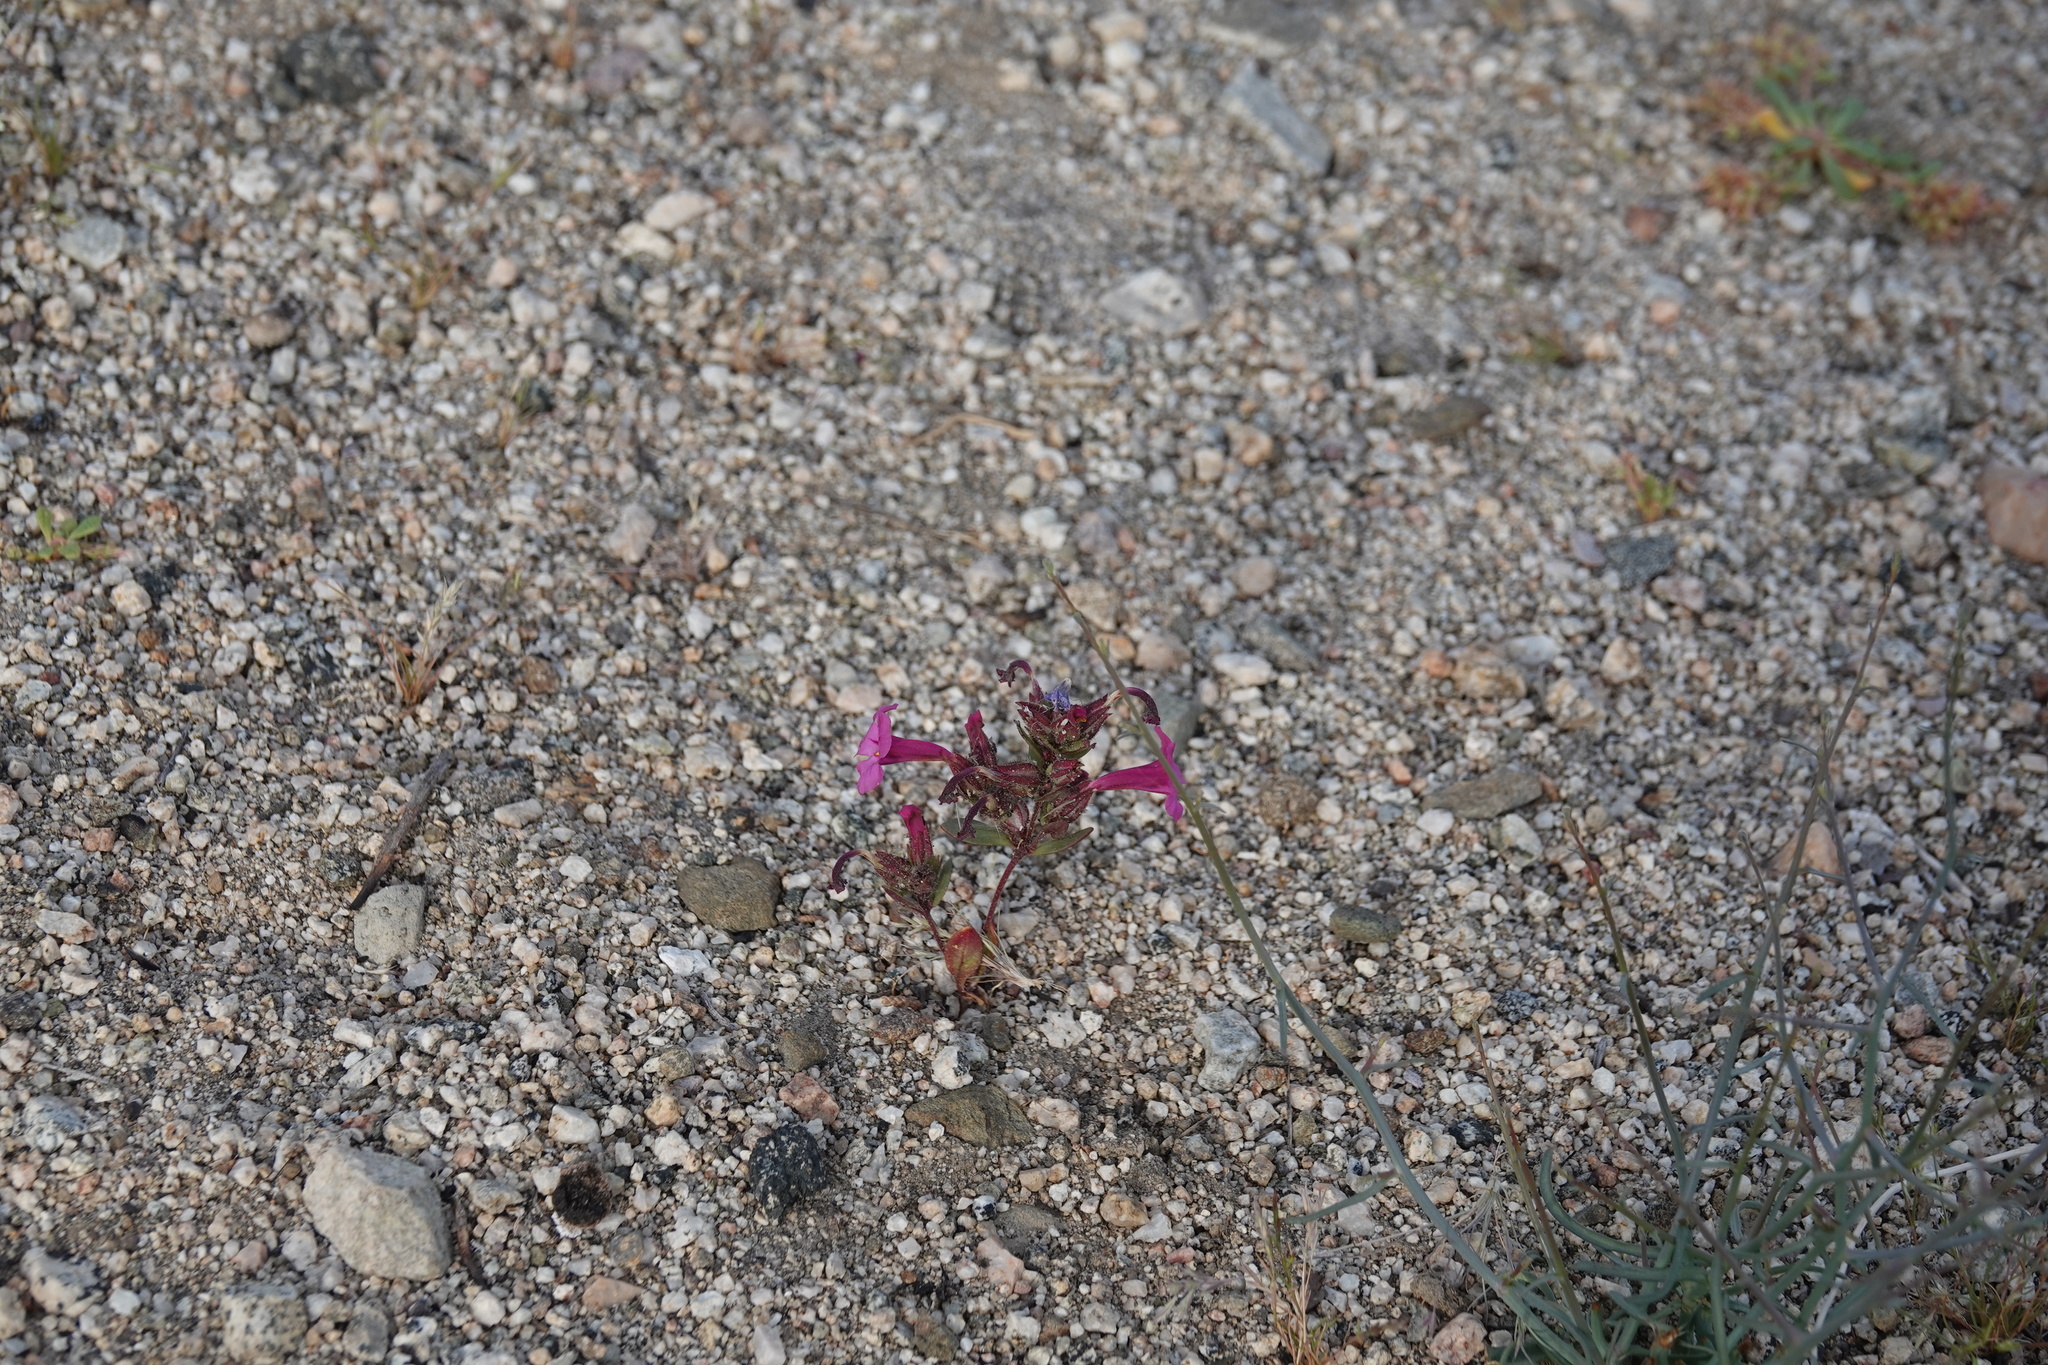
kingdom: Plantae
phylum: Tracheophyta
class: Magnoliopsida
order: Lamiales
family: Phrymaceae
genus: Diplacus
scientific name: Diplacus bigelovii
